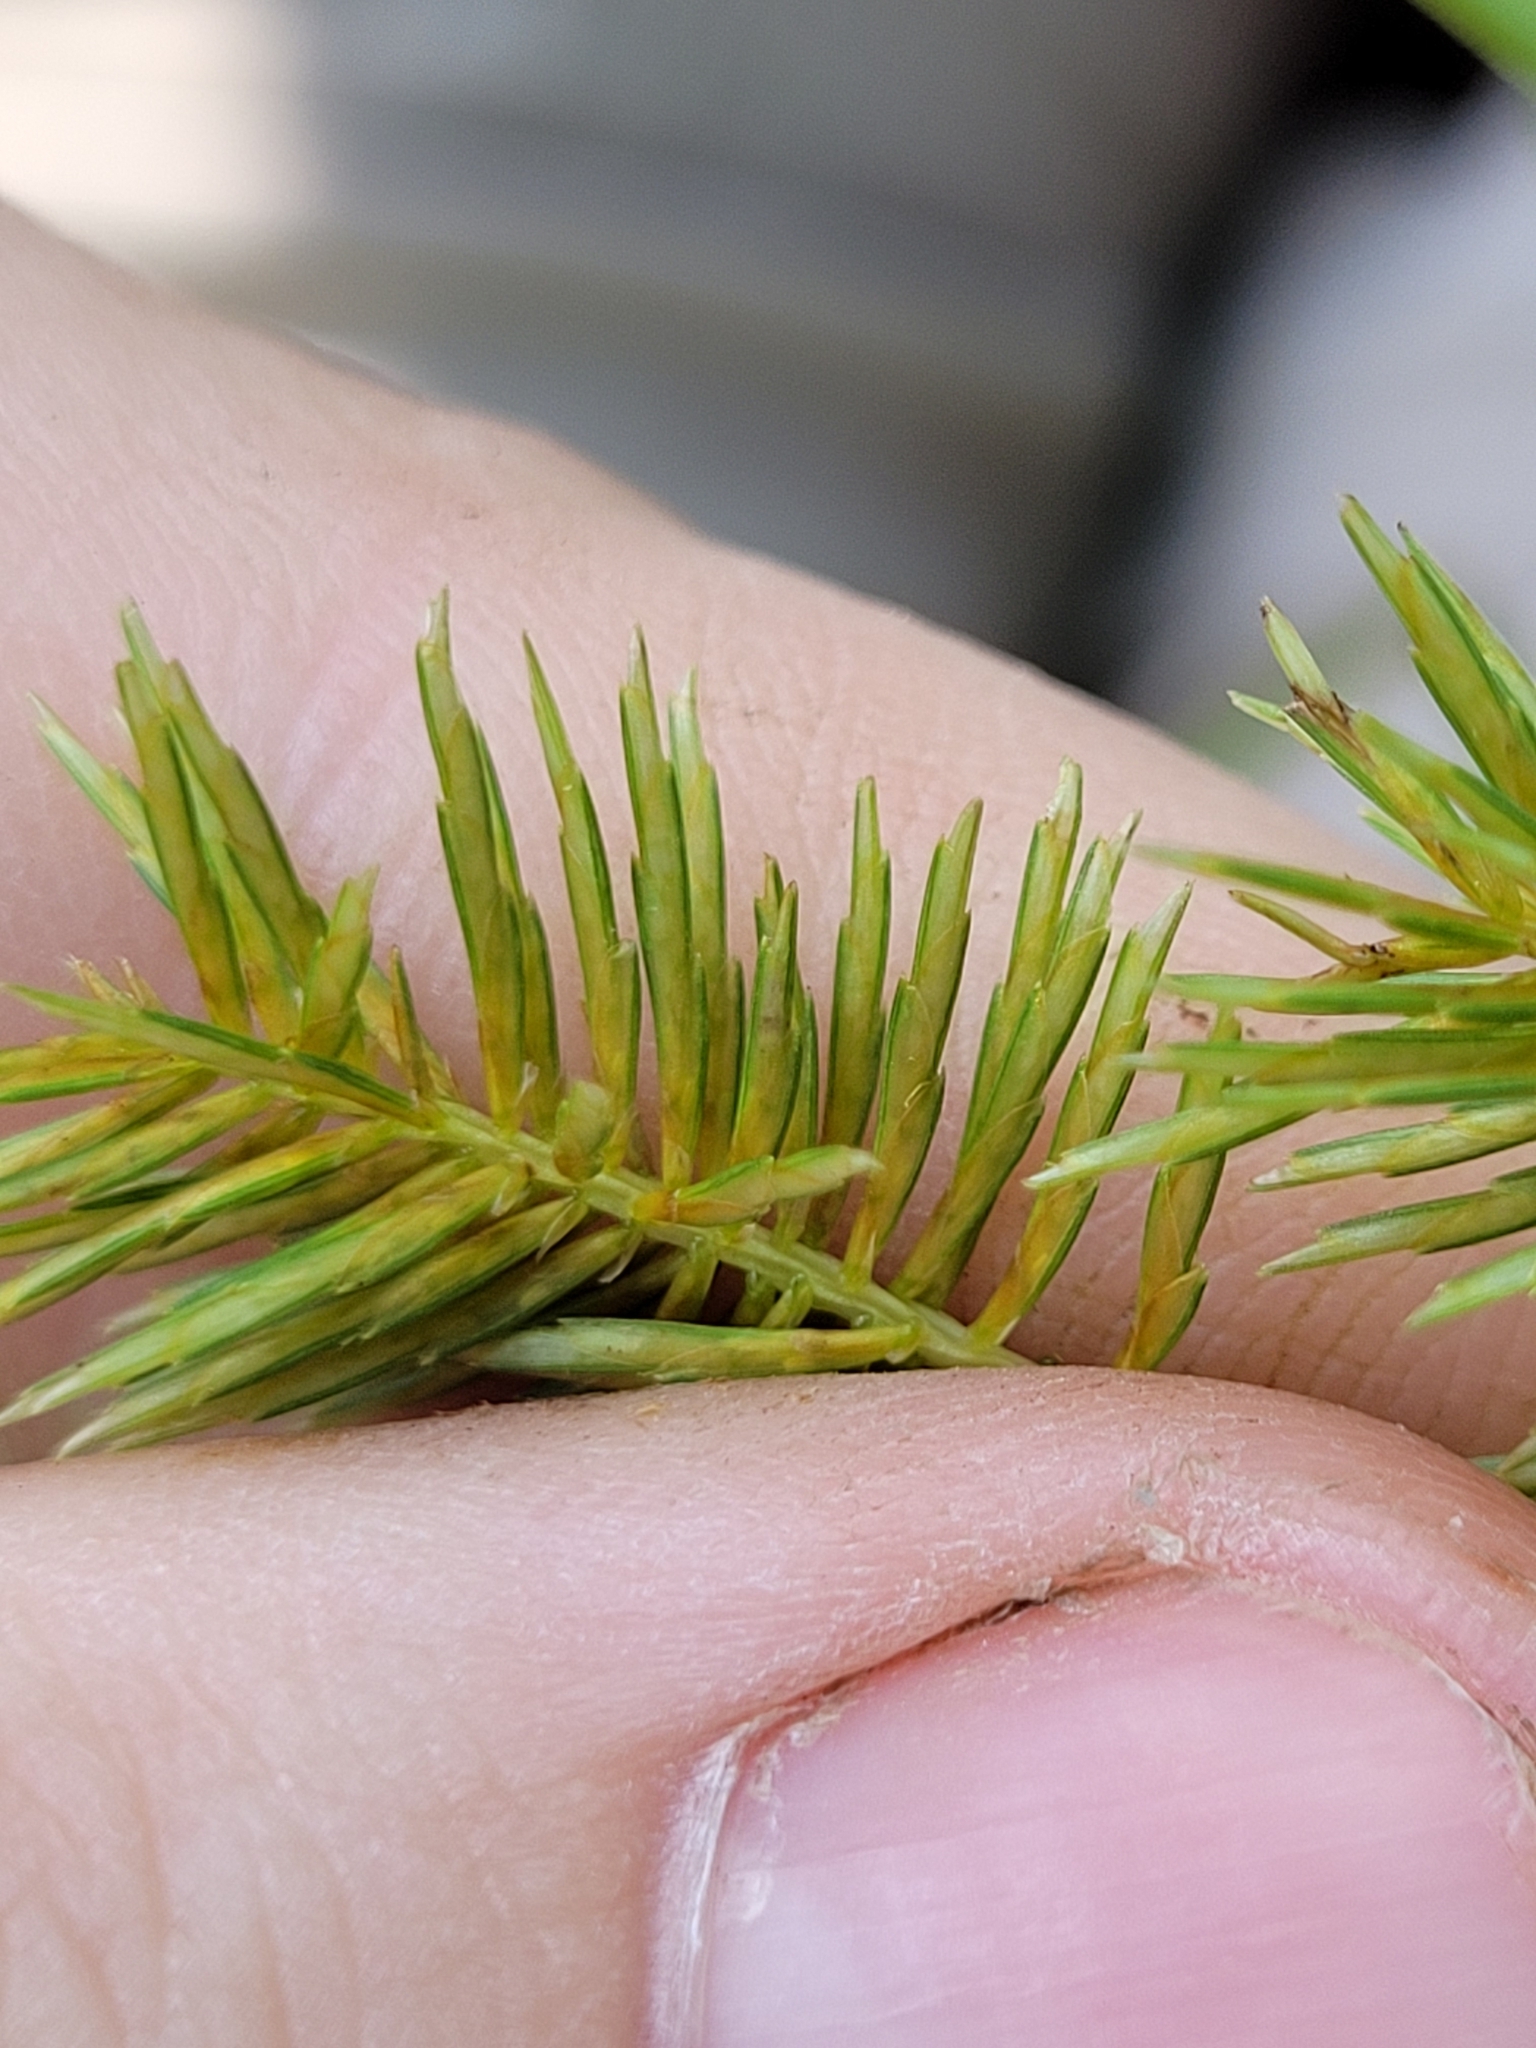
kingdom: Plantae
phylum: Tracheophyta
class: Liliopsida
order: Poales
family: Cyperaceae
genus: Cyperus
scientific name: Cyperus strigosus
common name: False nutsedge
